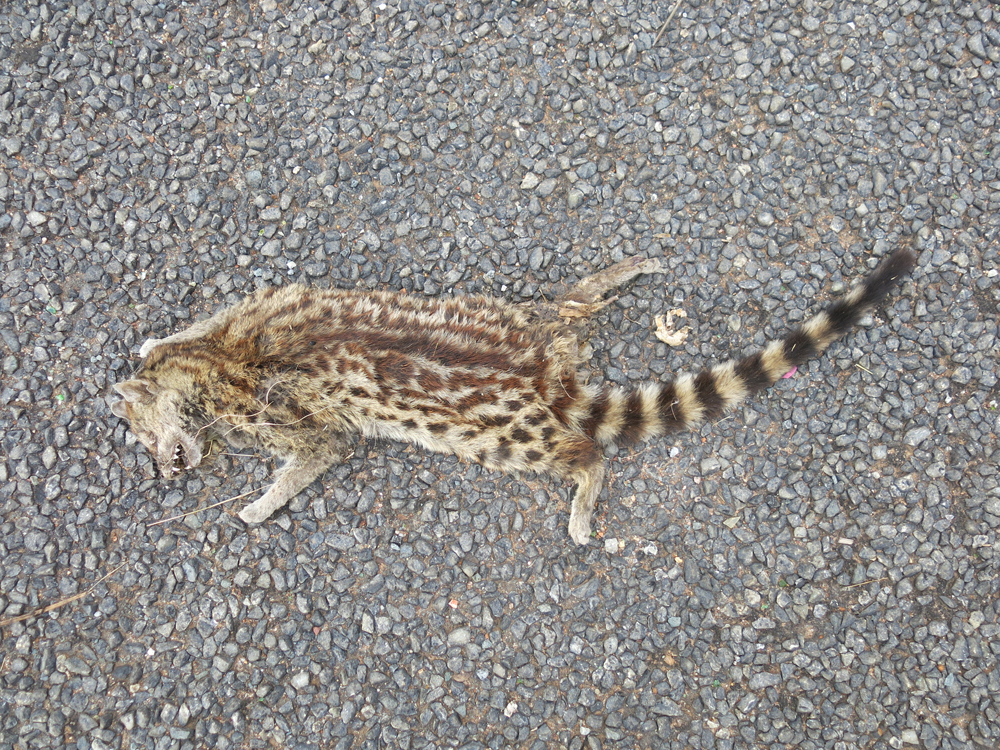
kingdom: Animalia
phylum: Chordata
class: Mammalia
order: Carnivora
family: Viverridae
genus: Genetta
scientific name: Genetta maculata
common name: Rusty-spotted genet
